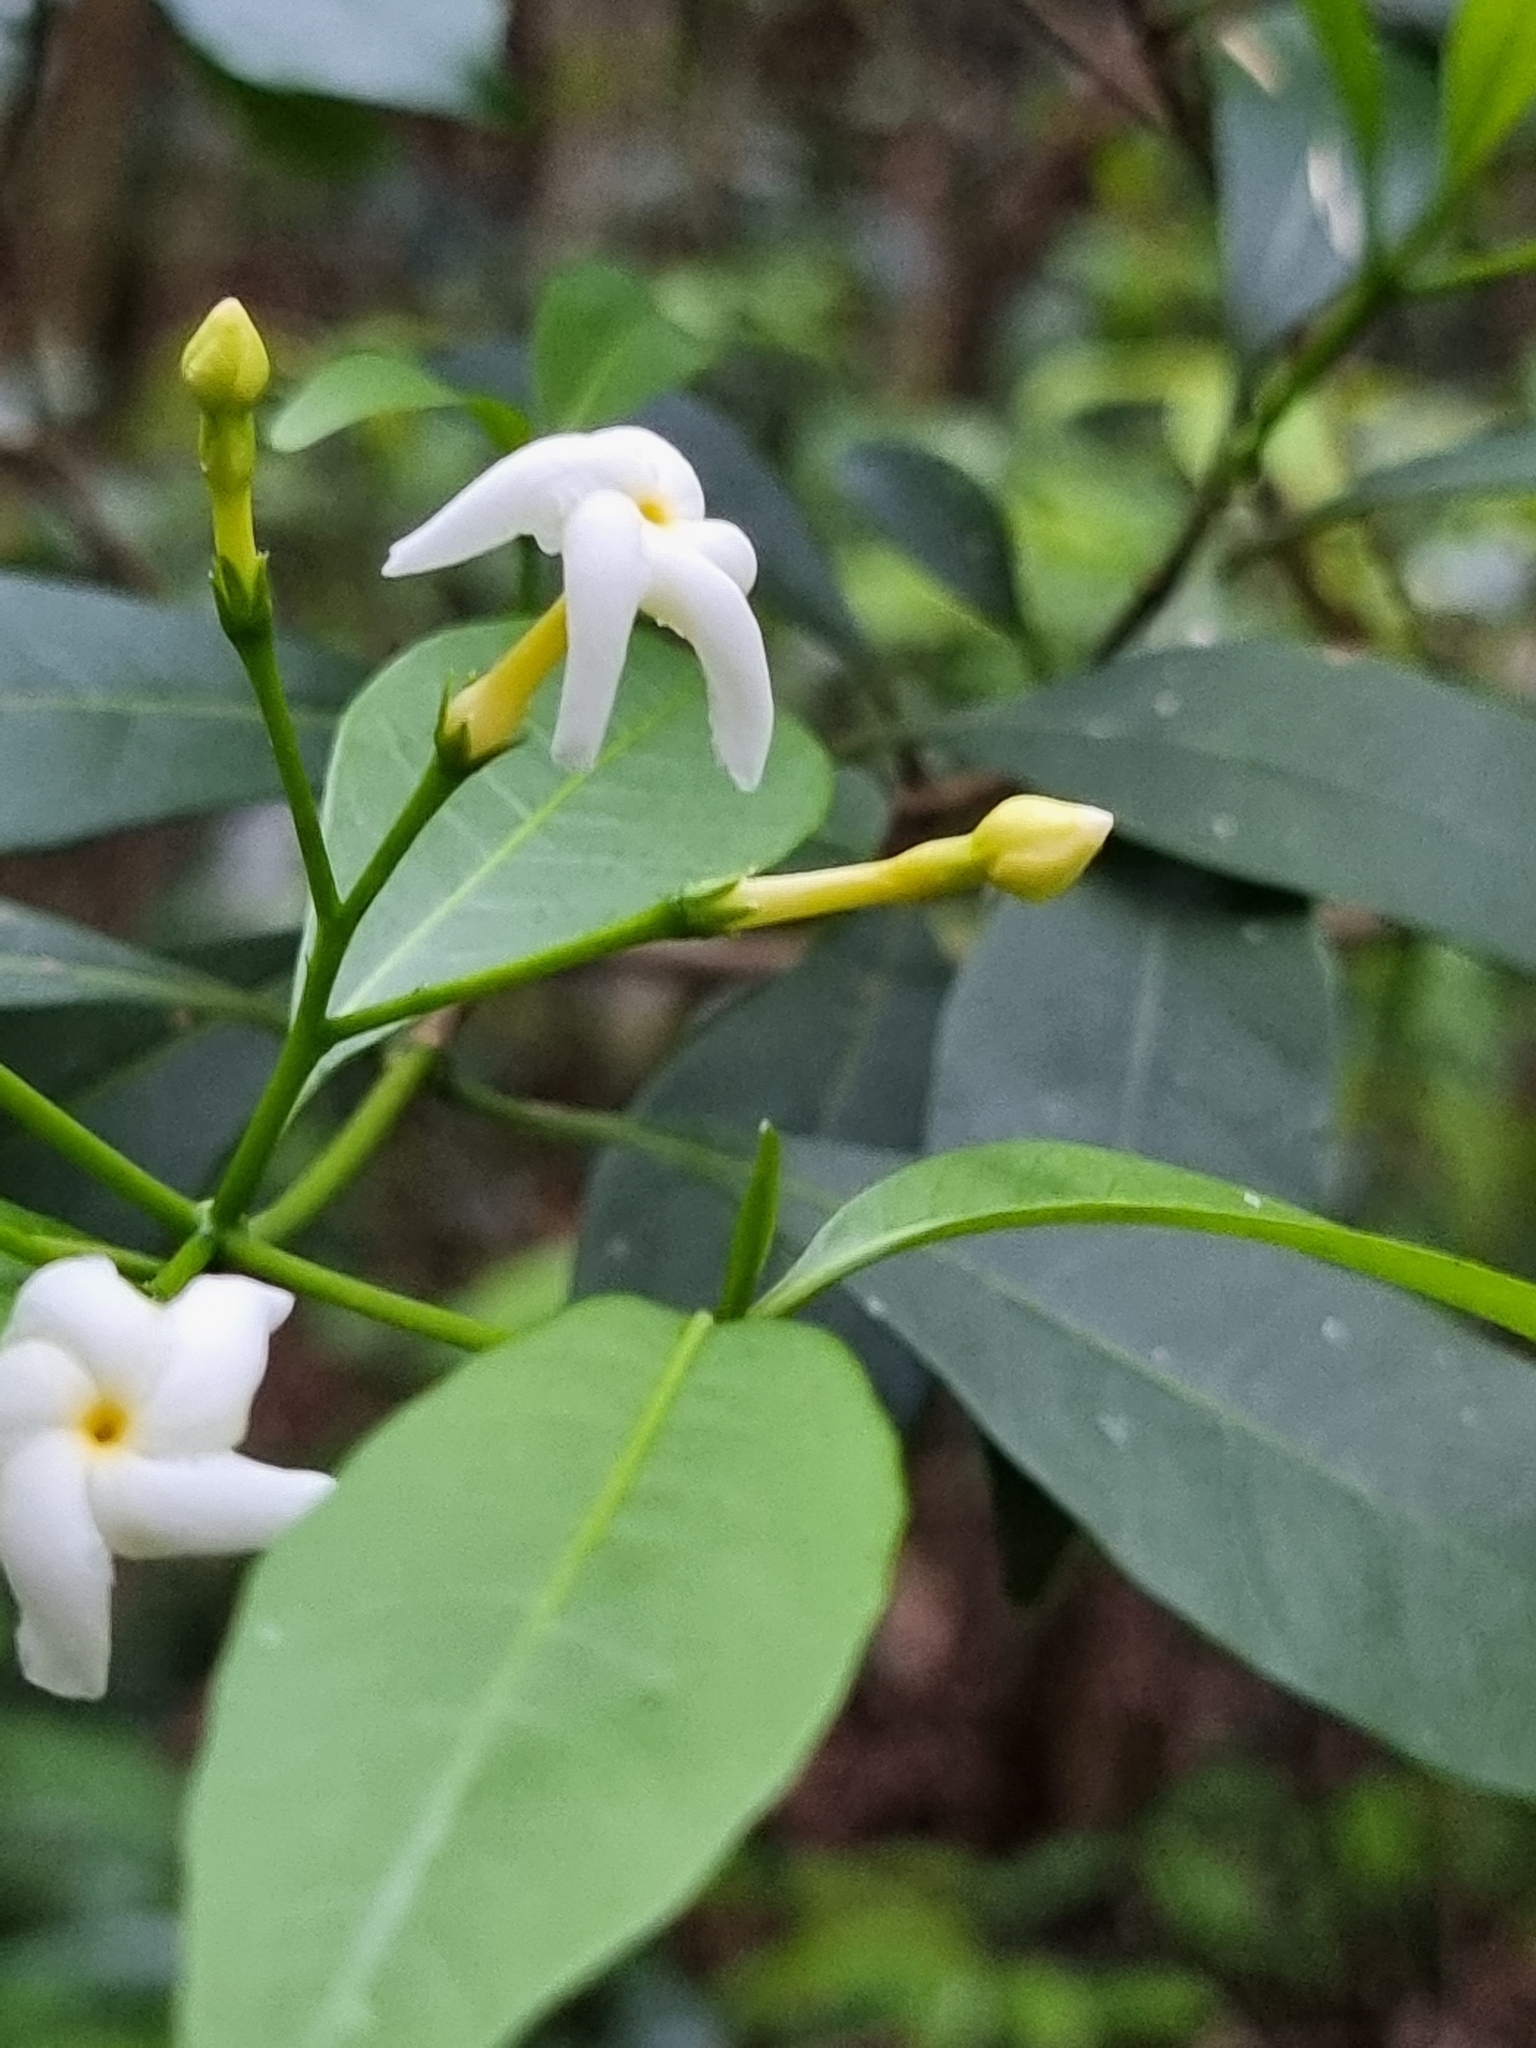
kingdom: Plantae
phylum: Tracheophyta
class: Magnoliopsida
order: Gentianales
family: Apocynaceae
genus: Tabernaemontana
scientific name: Tabernaemontana pandacaqui
